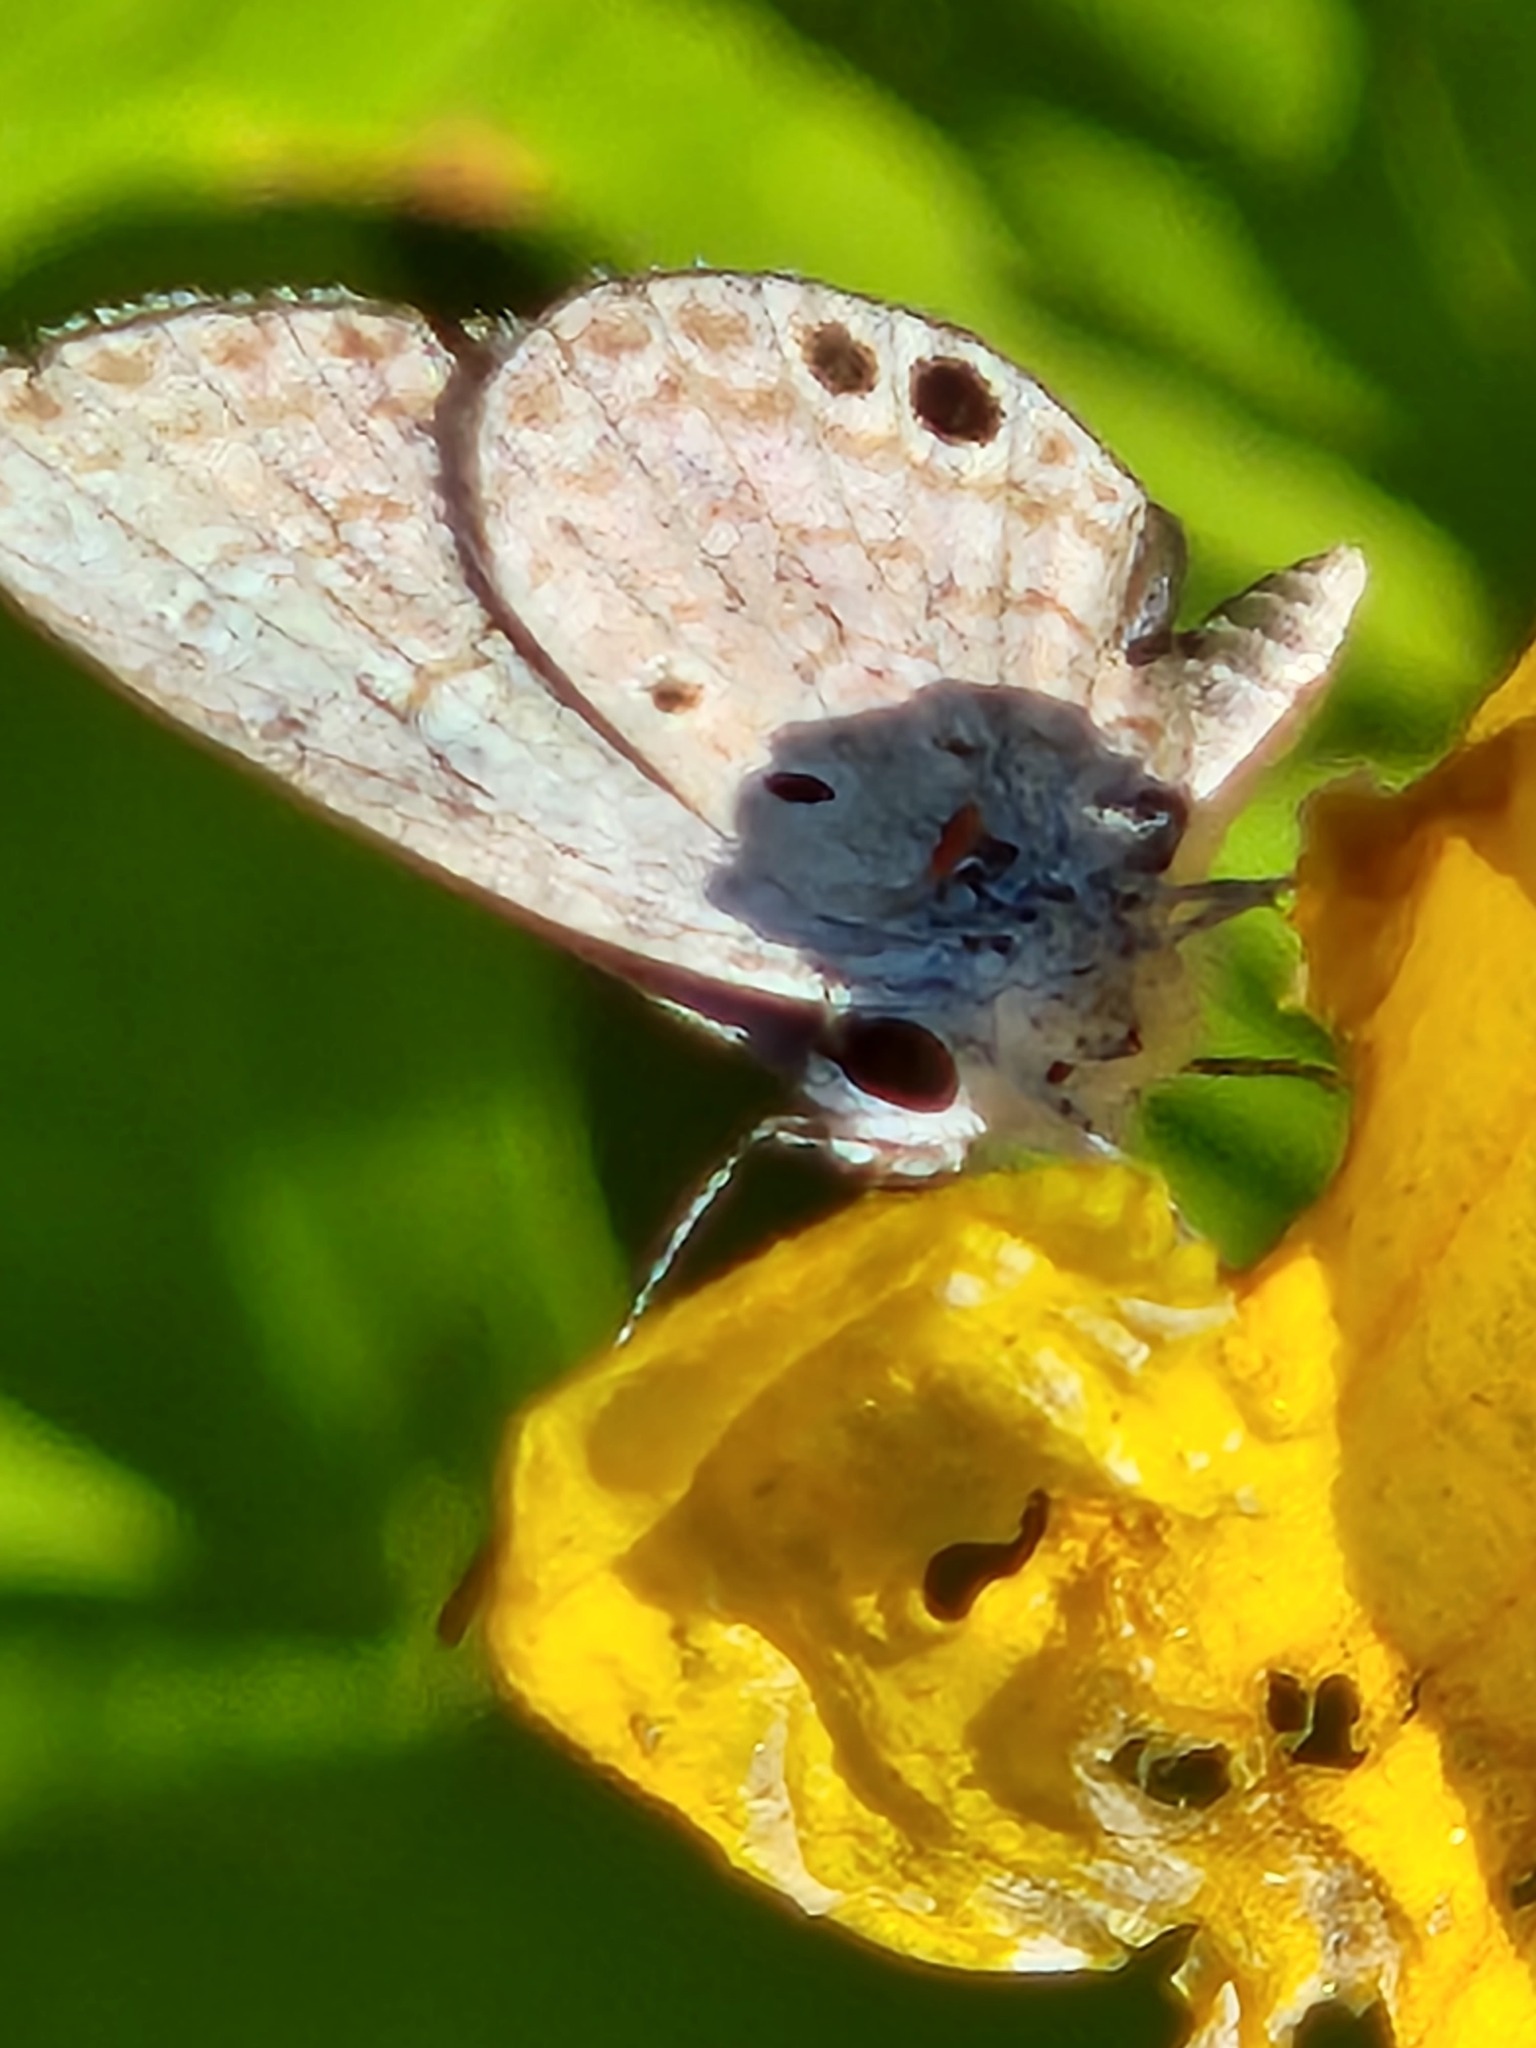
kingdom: Animalia
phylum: Arthropoda
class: Insecta
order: Lepidoptera
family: Lycaenidae
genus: Hemiargus
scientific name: Hemiargus ceraunus
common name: Ceraunus blue
